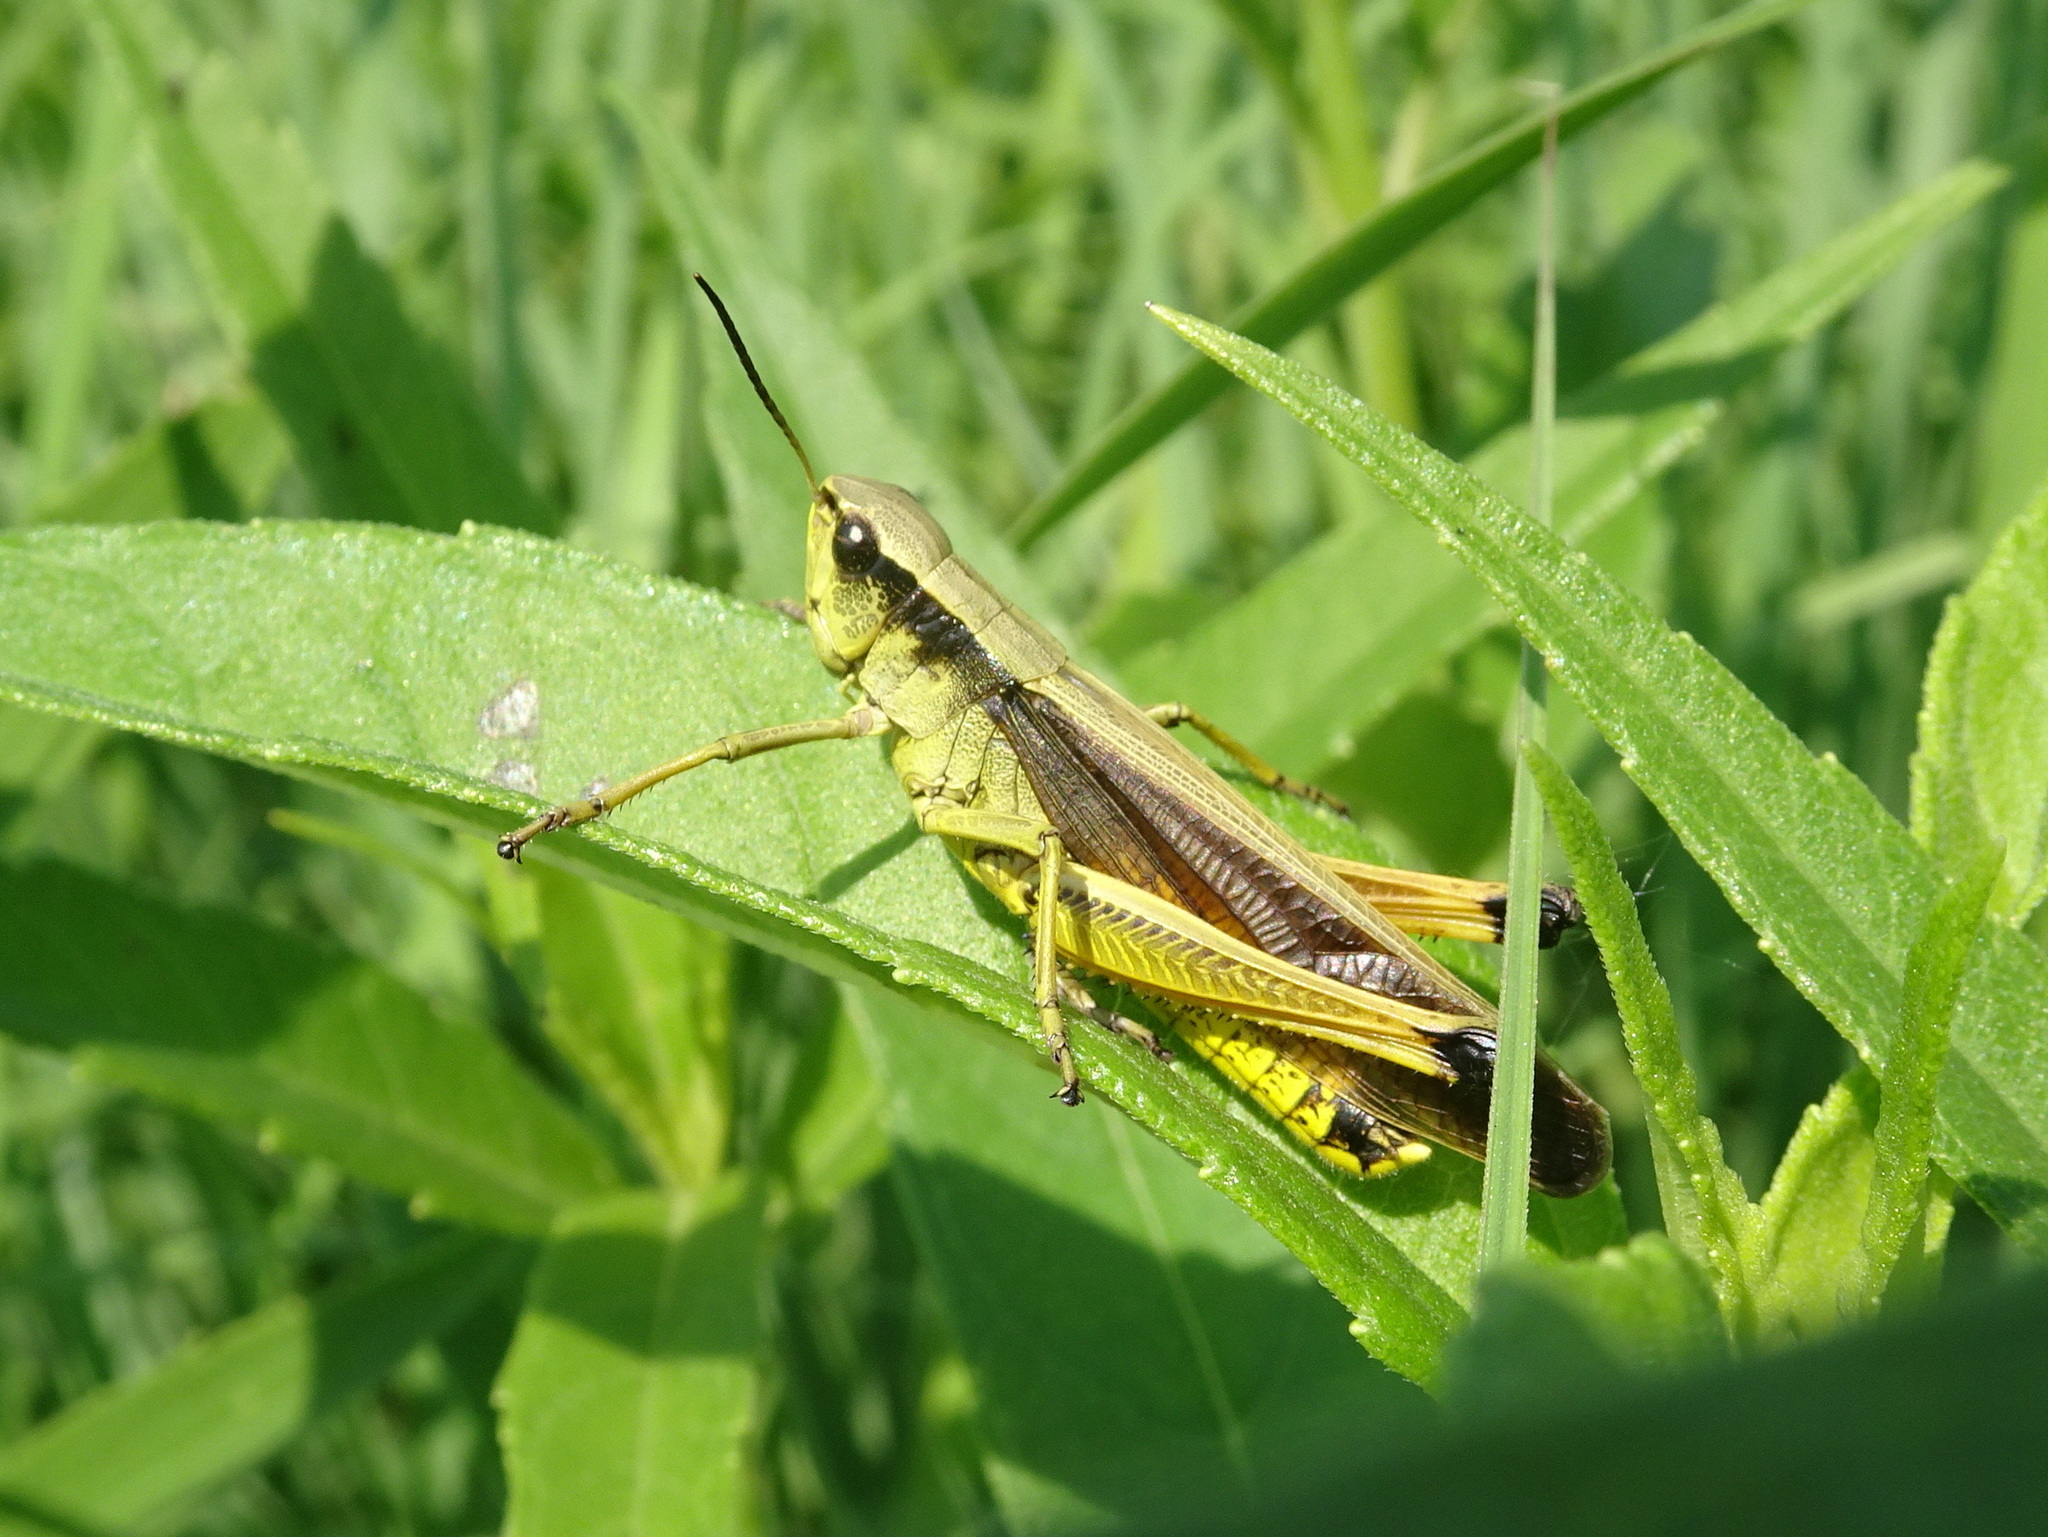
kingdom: Animalia
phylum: Arthropoda
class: Insecta
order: Orthoptera
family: Acrididae
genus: Stethophyma
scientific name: Stethophyma celatum
